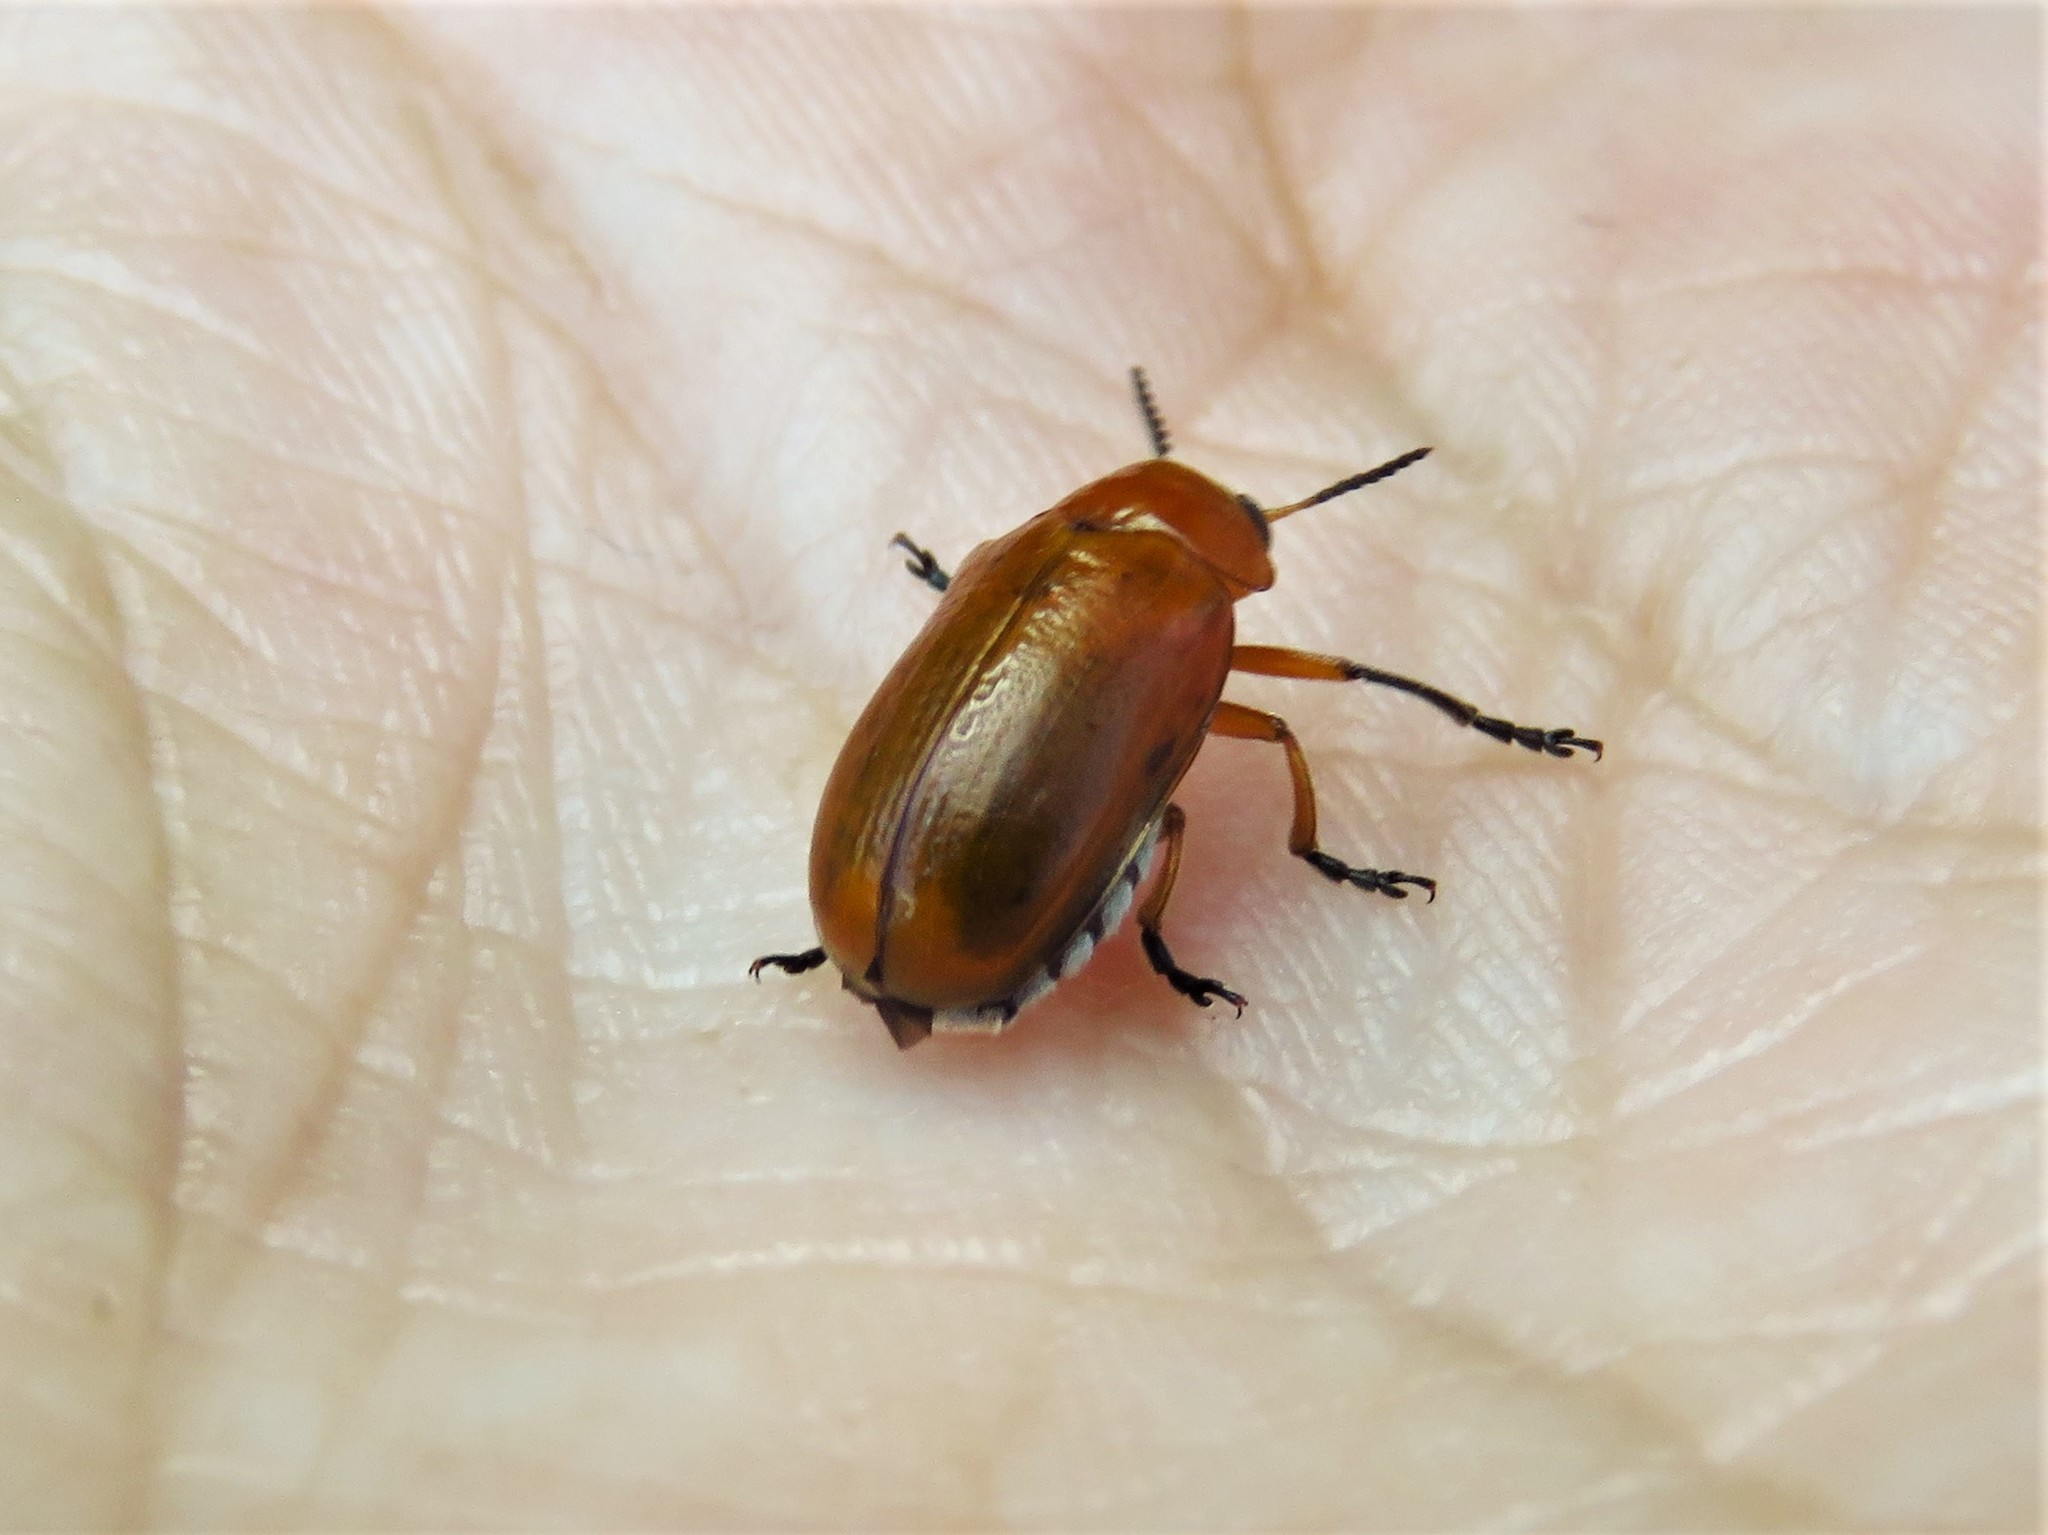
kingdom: Animalia
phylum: Arthropoda
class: Insecta
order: Coleoptera
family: Chrysomelidae
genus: Anomoea
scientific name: Anomoea laticlavia
